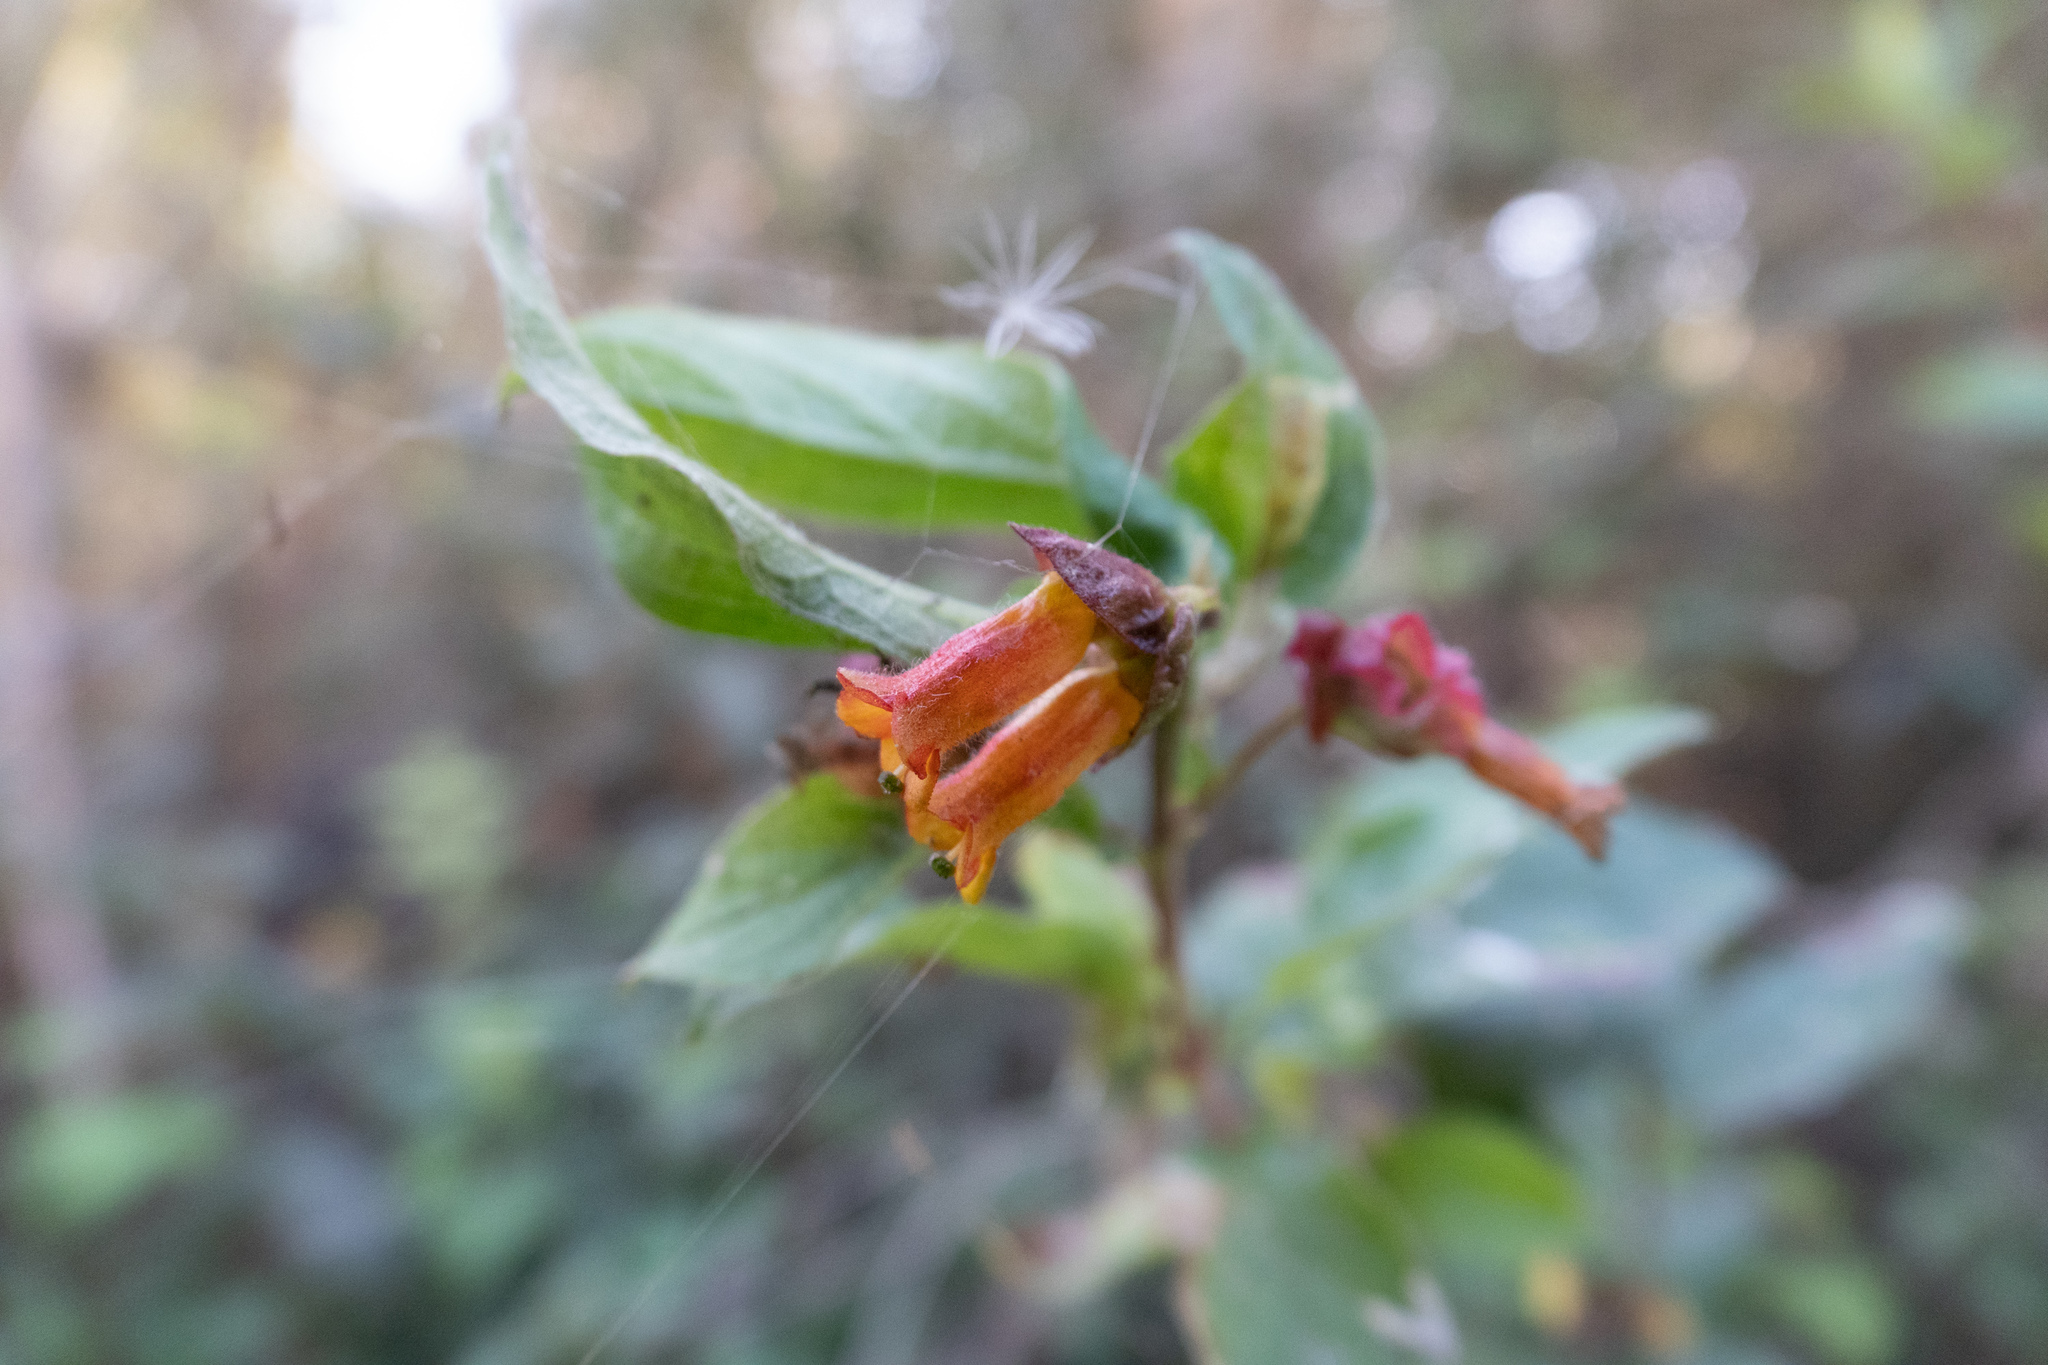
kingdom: Plantae
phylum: Tracheophyta
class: Magnoliopsida
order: Dipsacales
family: Caprifoliaceae
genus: Lonicera
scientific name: Lonicera involucrata
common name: Californian honeysuckle
